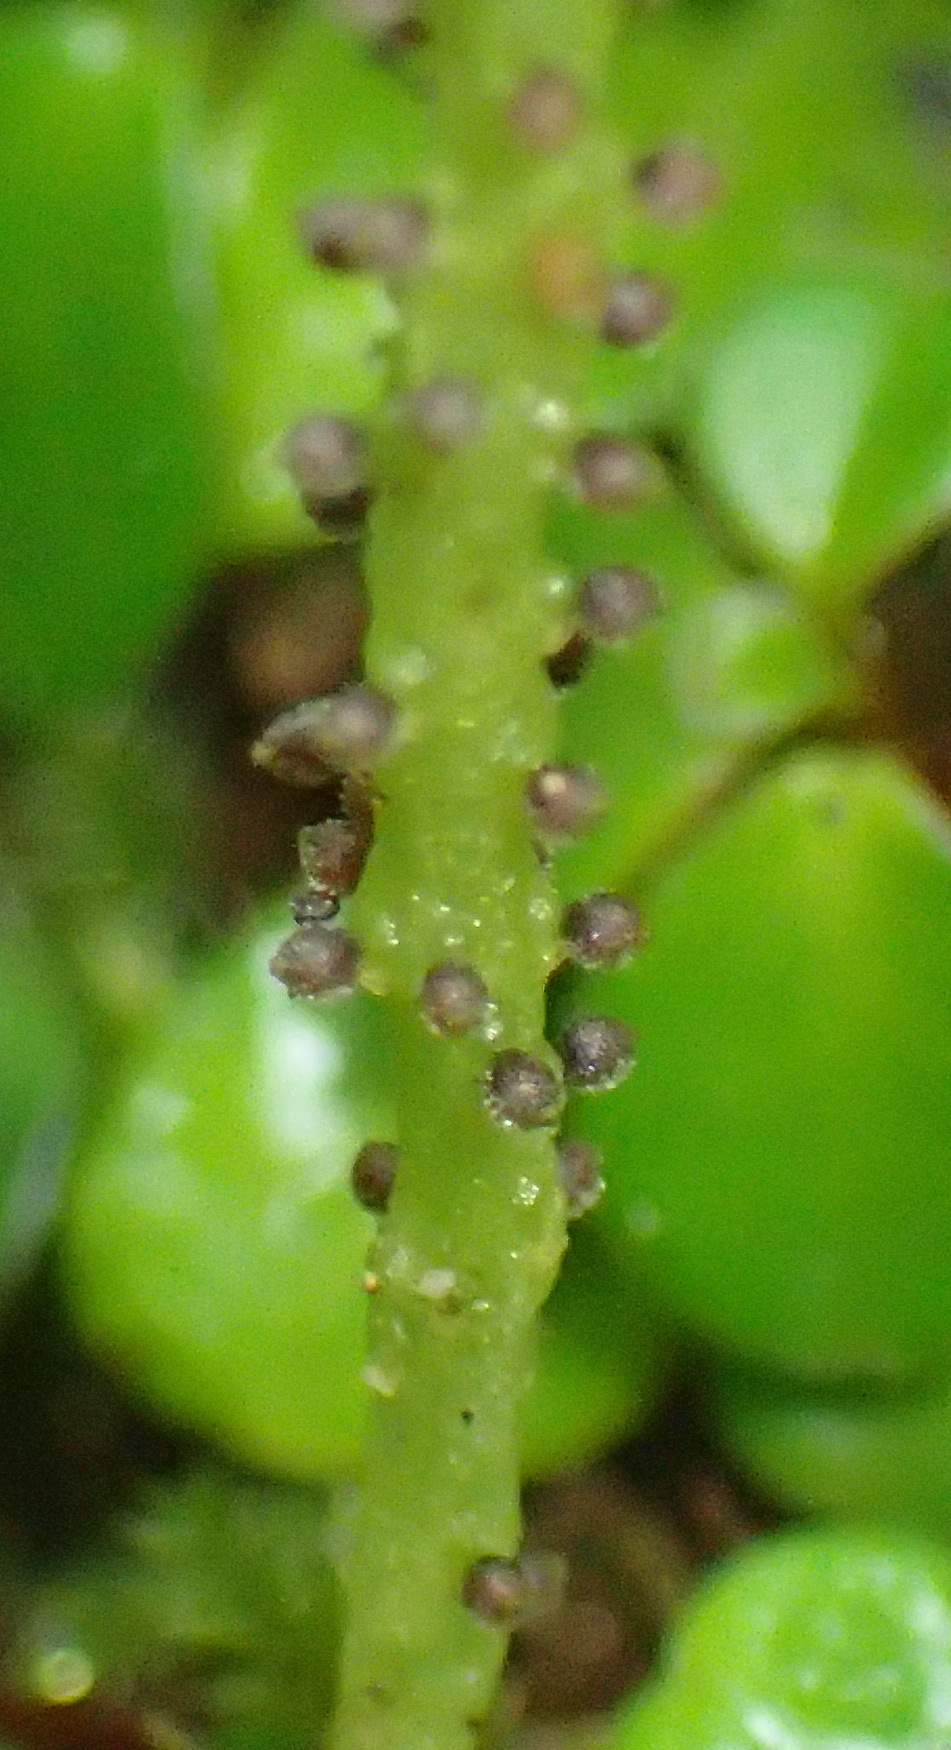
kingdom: Plantae
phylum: Tracheophyta
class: Magnoliopsida
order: Piperales
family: Piperaceae
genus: Peperomia
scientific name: Peperomia retusa
